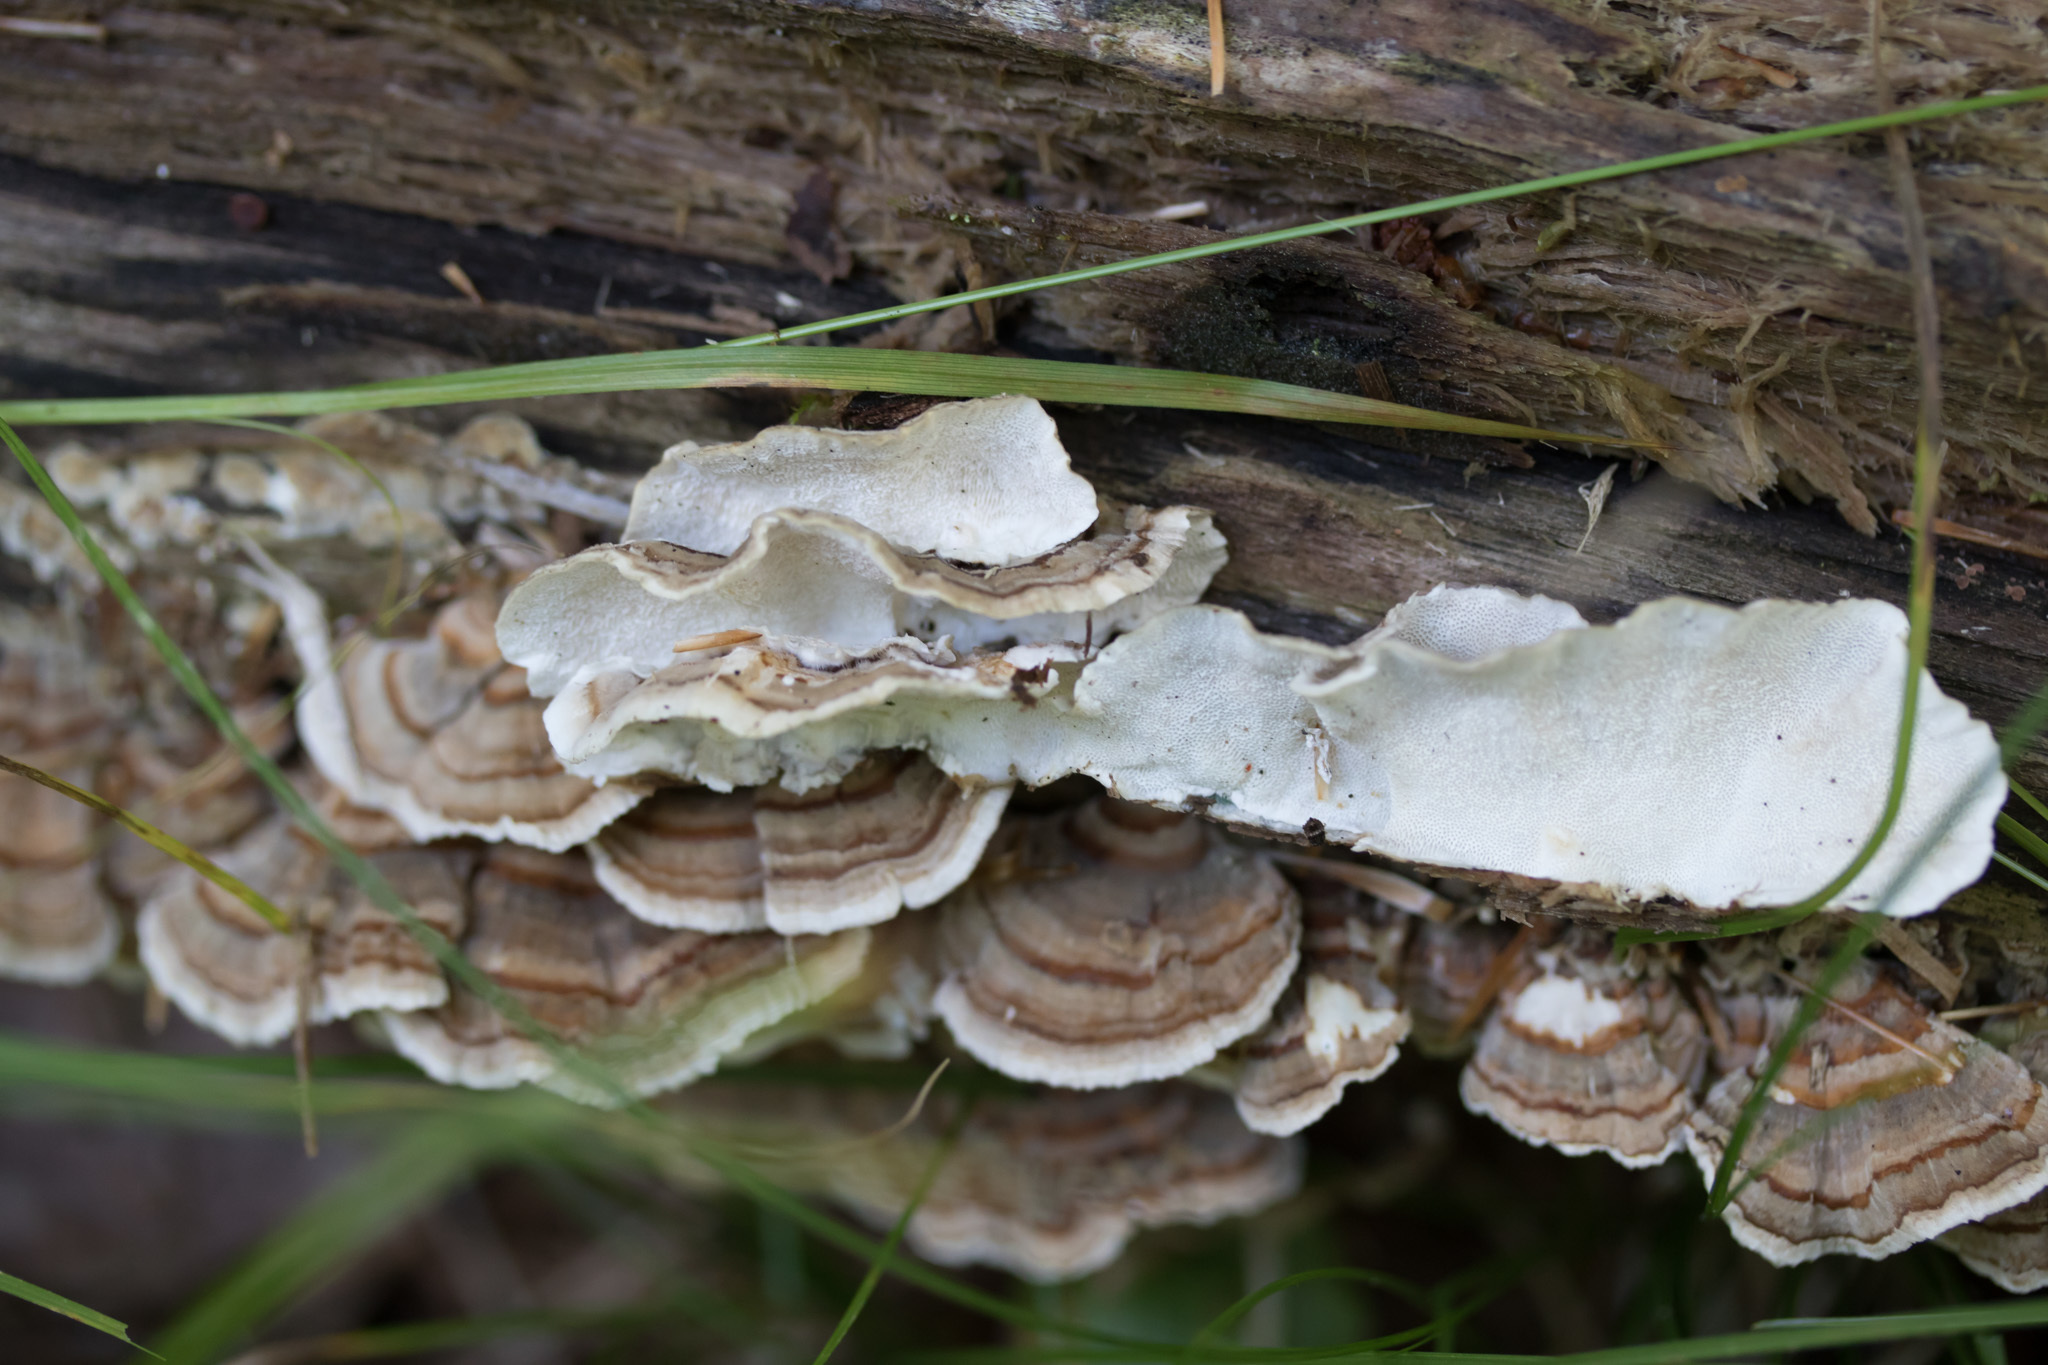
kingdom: Fungi
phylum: Basidiomycota
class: Agaricomycetes
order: Polyporales
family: Polyporaceae
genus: Trametes
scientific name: Trametes versicolor
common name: Turkeytail
